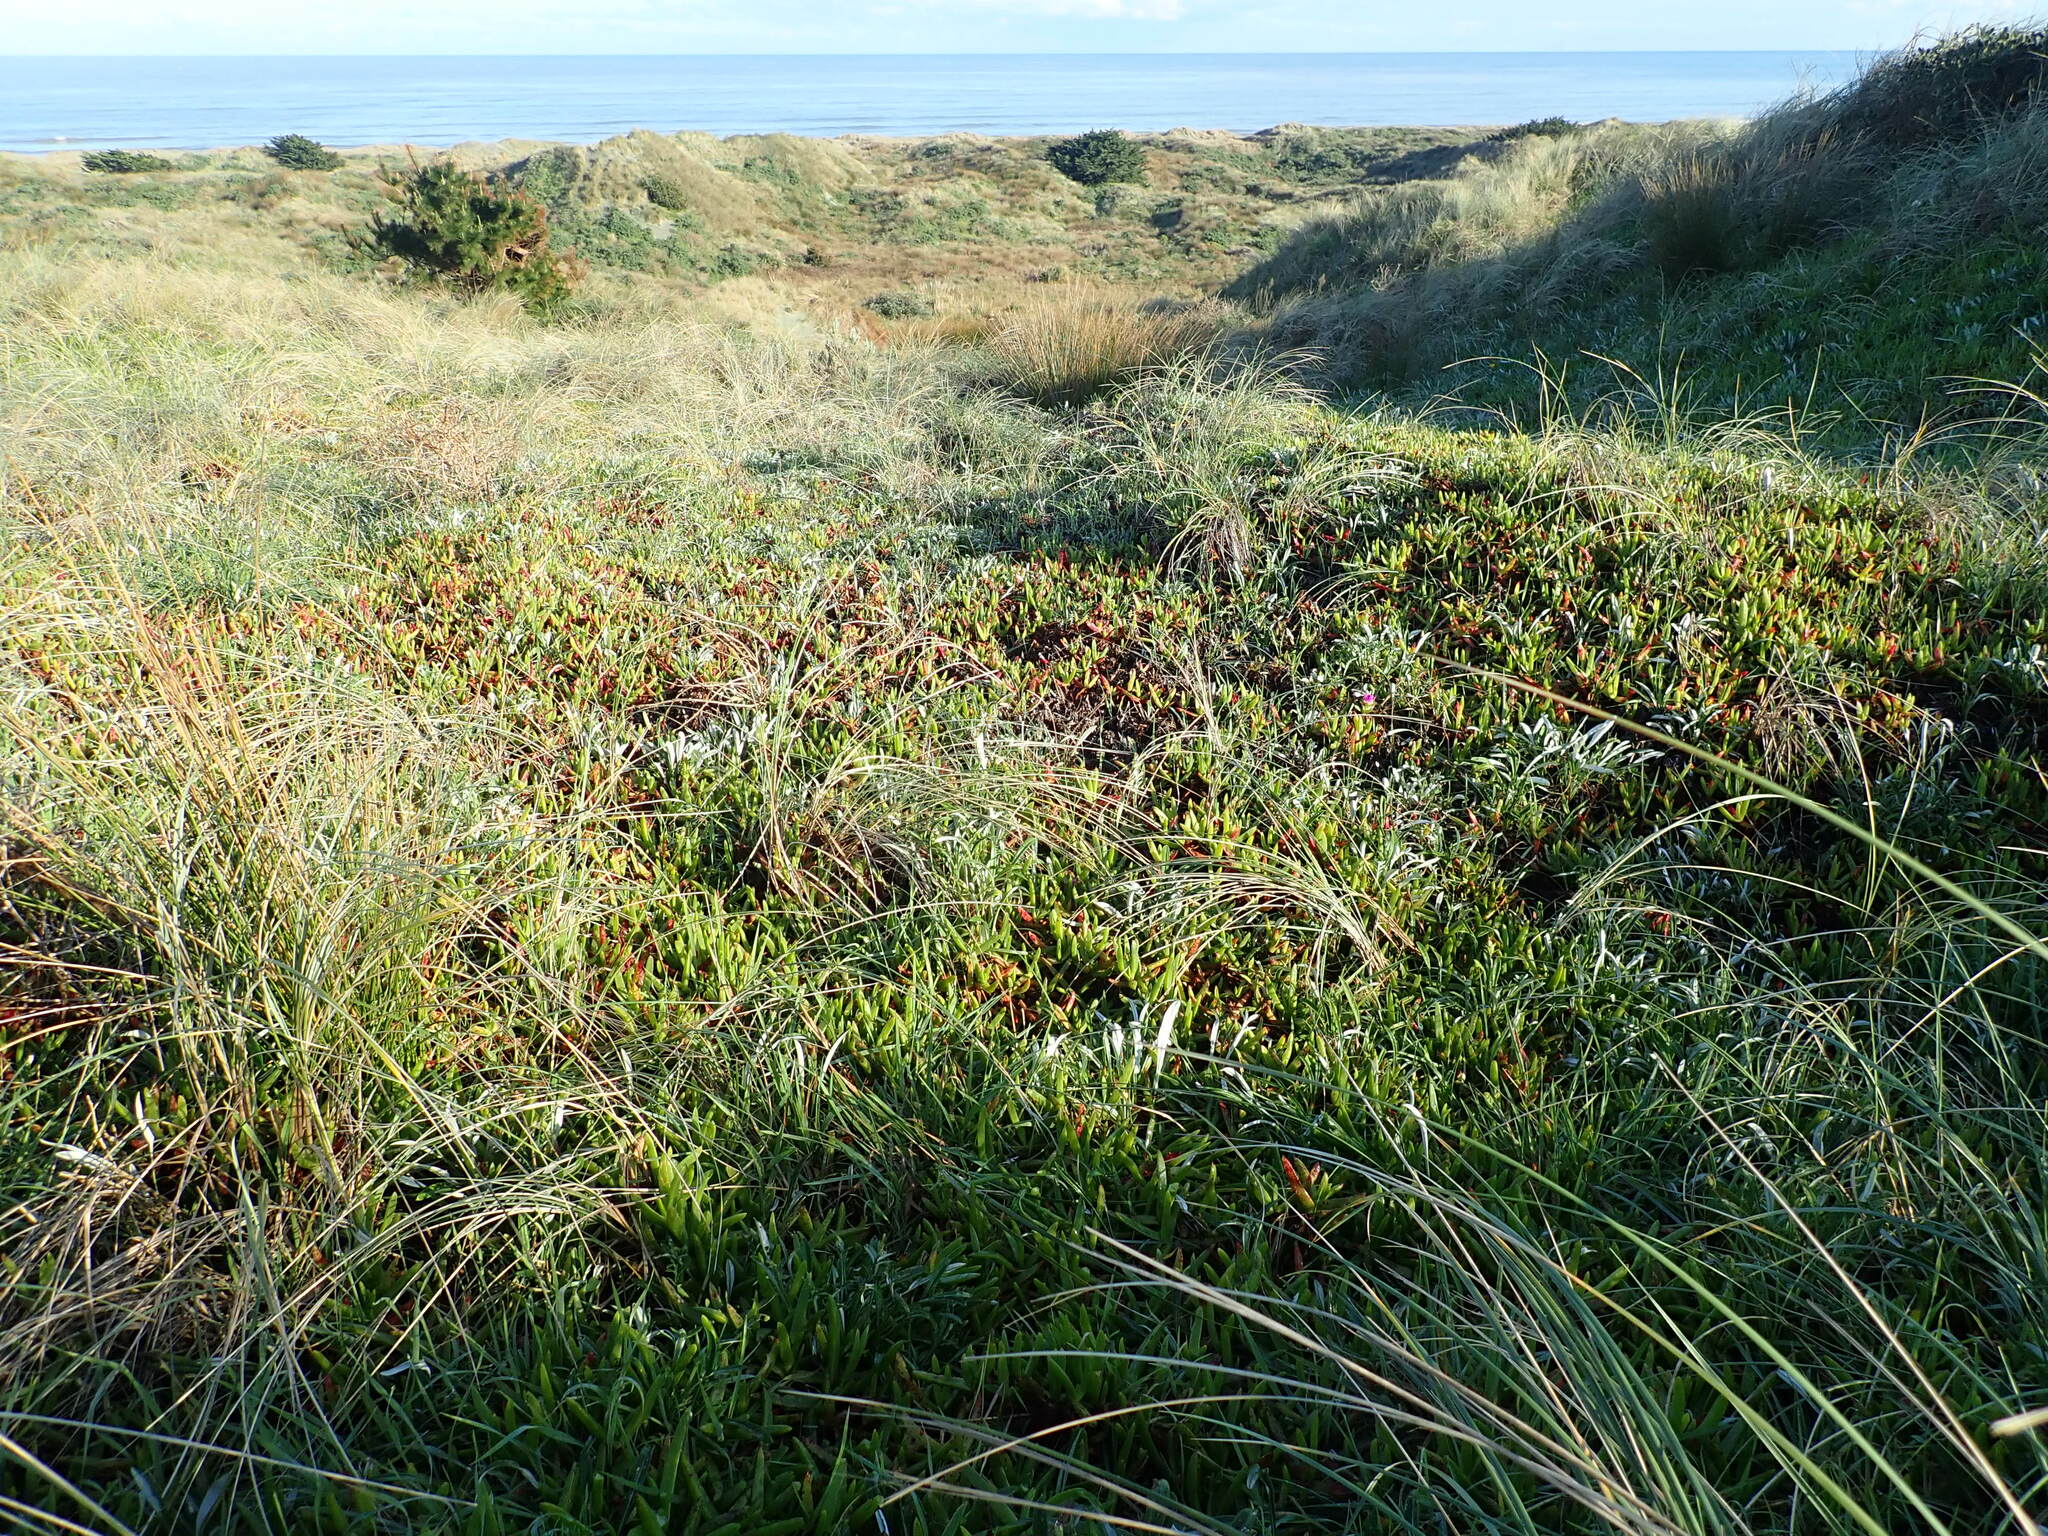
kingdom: Plantae
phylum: Tracheophyta
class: Magnoliopsida
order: Caryophyllales
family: Aizoaceae
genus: Carpobrotus
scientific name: Carpobrotus chilensis
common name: Sea fig
